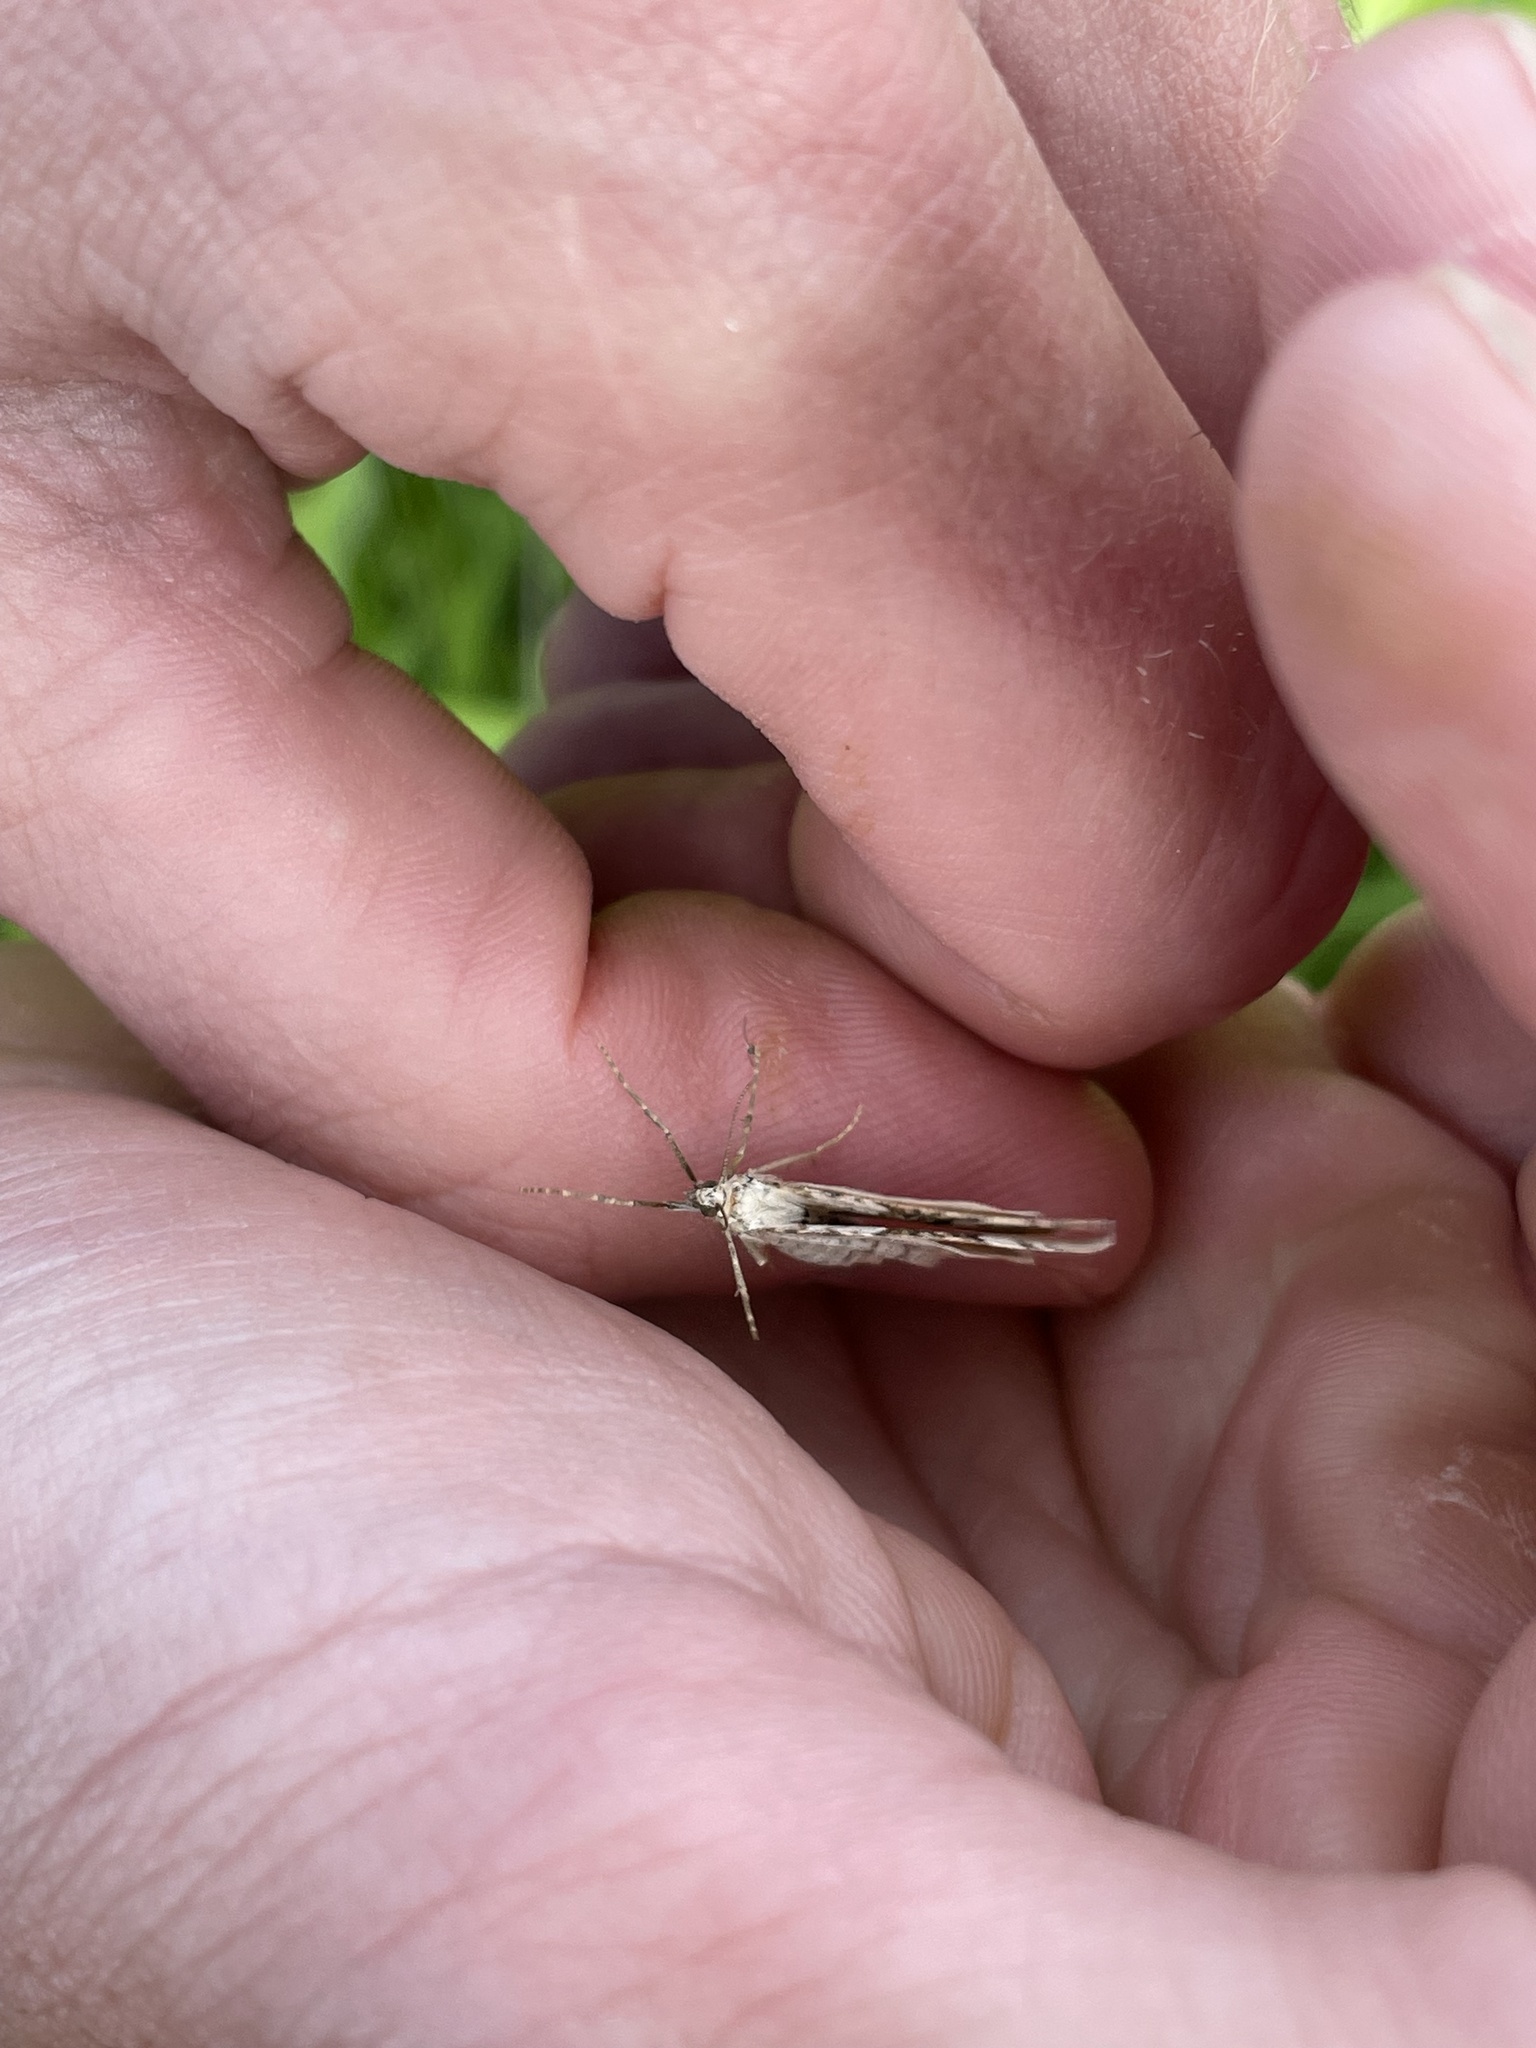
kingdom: Animalia
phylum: Arthropoda
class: Insecta
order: Lepidoptera
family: Geometridae
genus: Xanthorhoe
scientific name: Xanthorhoe montanata
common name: Silver-ground carpet
